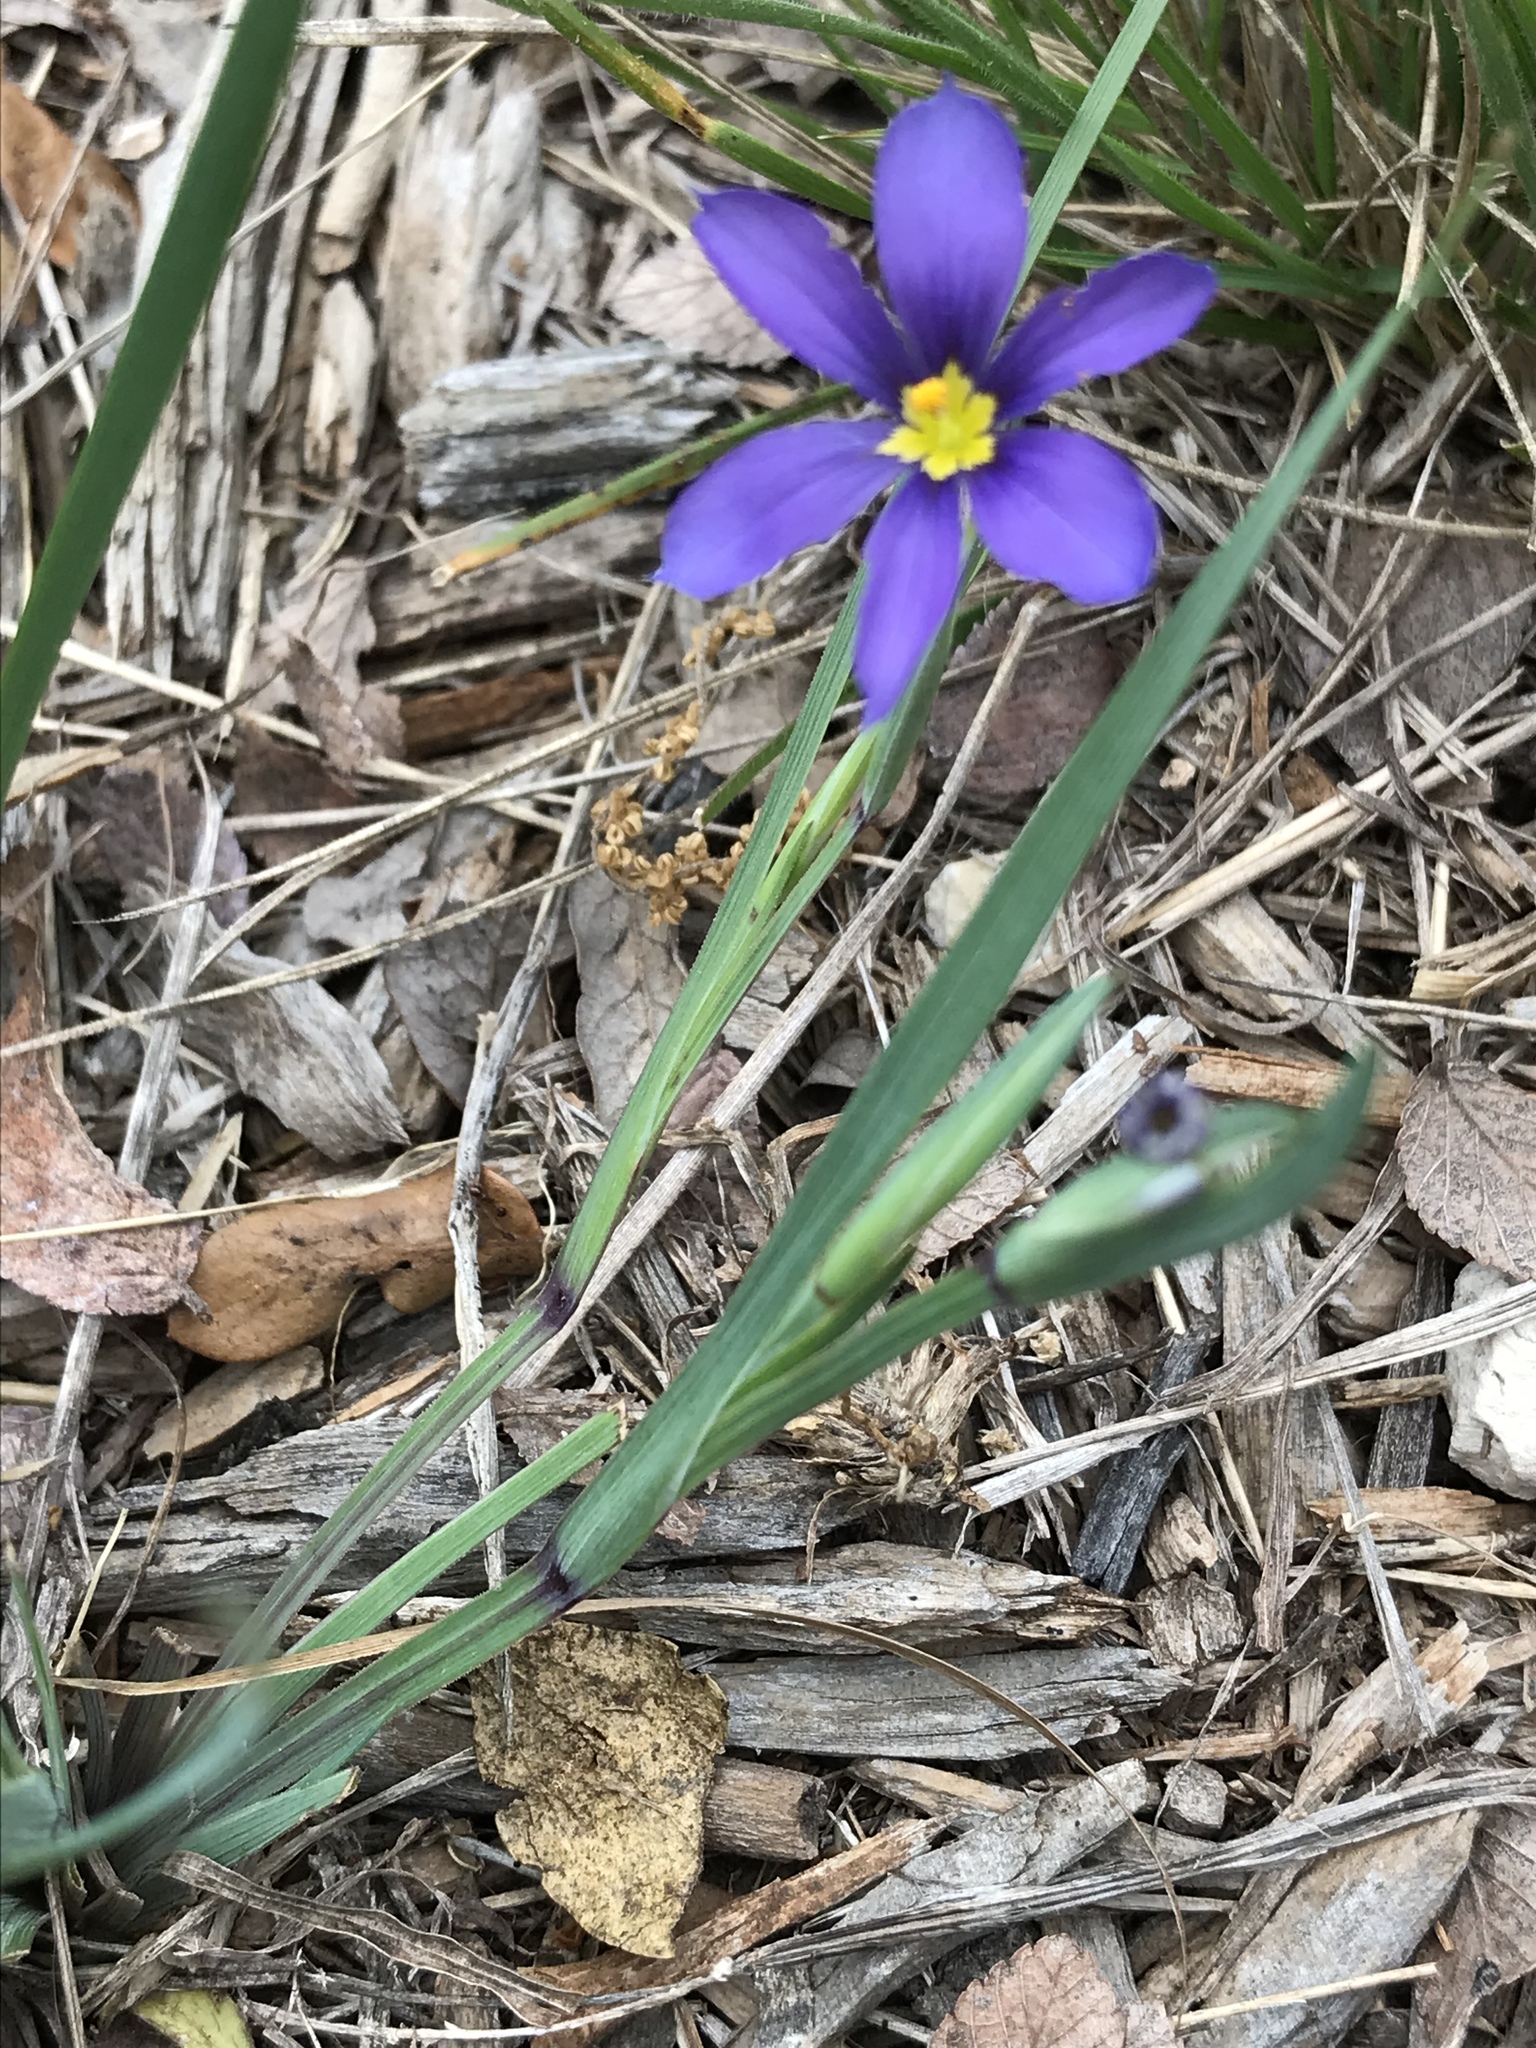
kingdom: Plantae
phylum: Tracheophyta
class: Liliopsida
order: Asparagales
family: Iridaceae
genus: Sisyrinchium
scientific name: Sisyrinchium ensigerum
